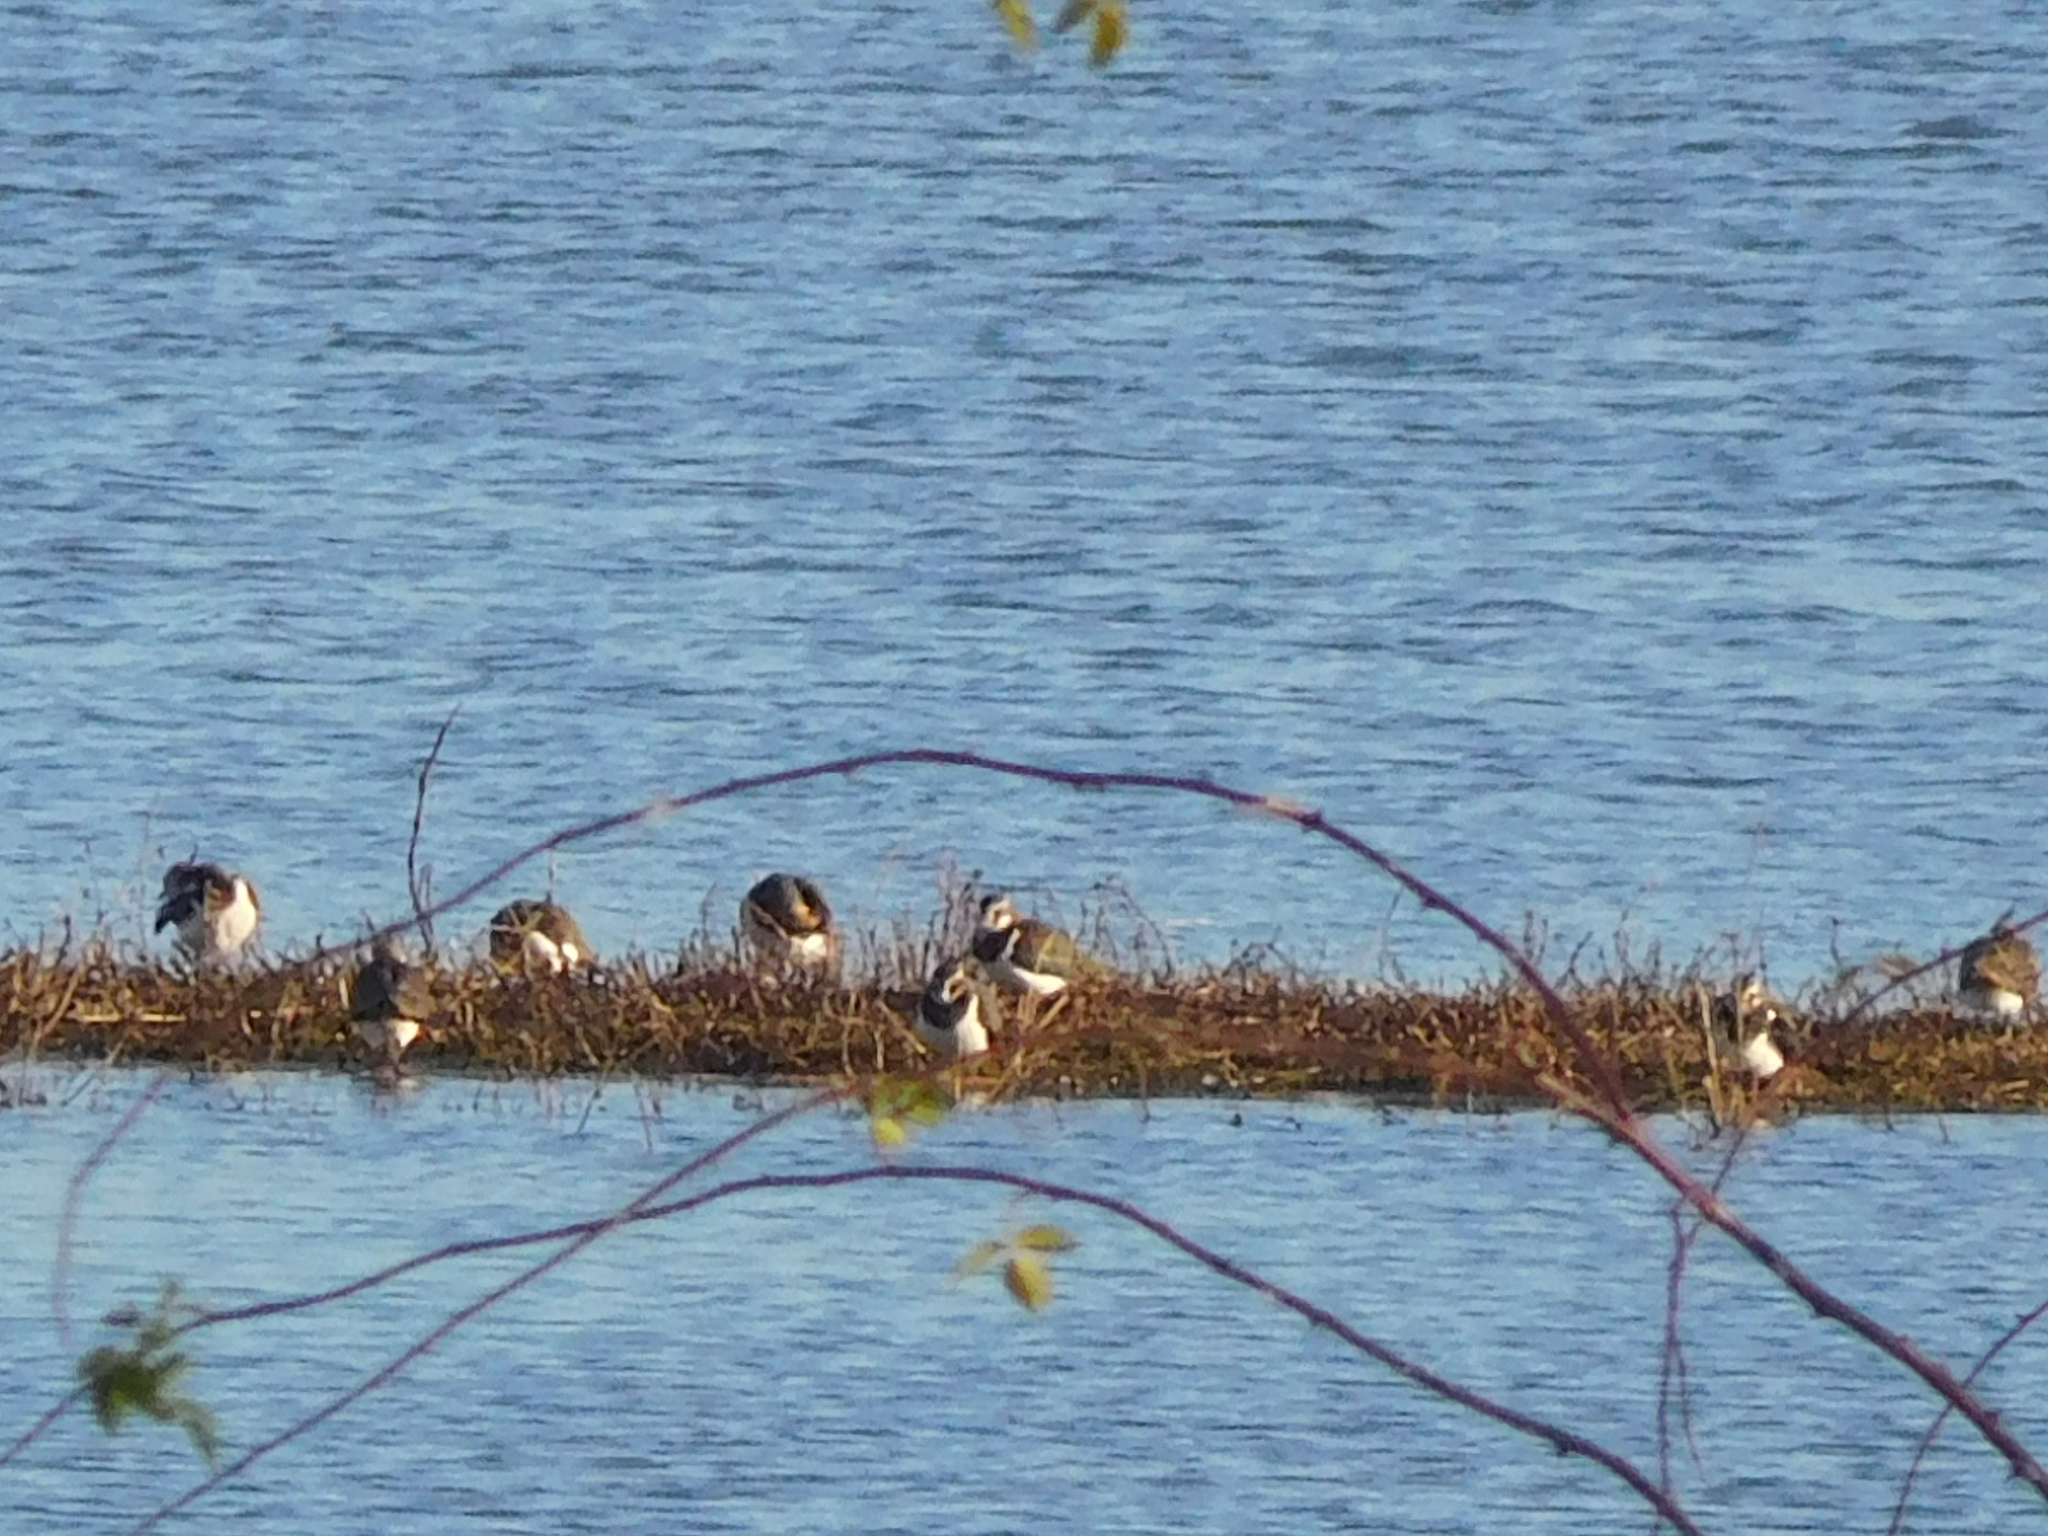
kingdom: Animalia
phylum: Chordata
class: Aves
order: Charadriiformes
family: Charadriidae
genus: Vanellus
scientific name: Vanellus vanellus
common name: Northern lapwing
